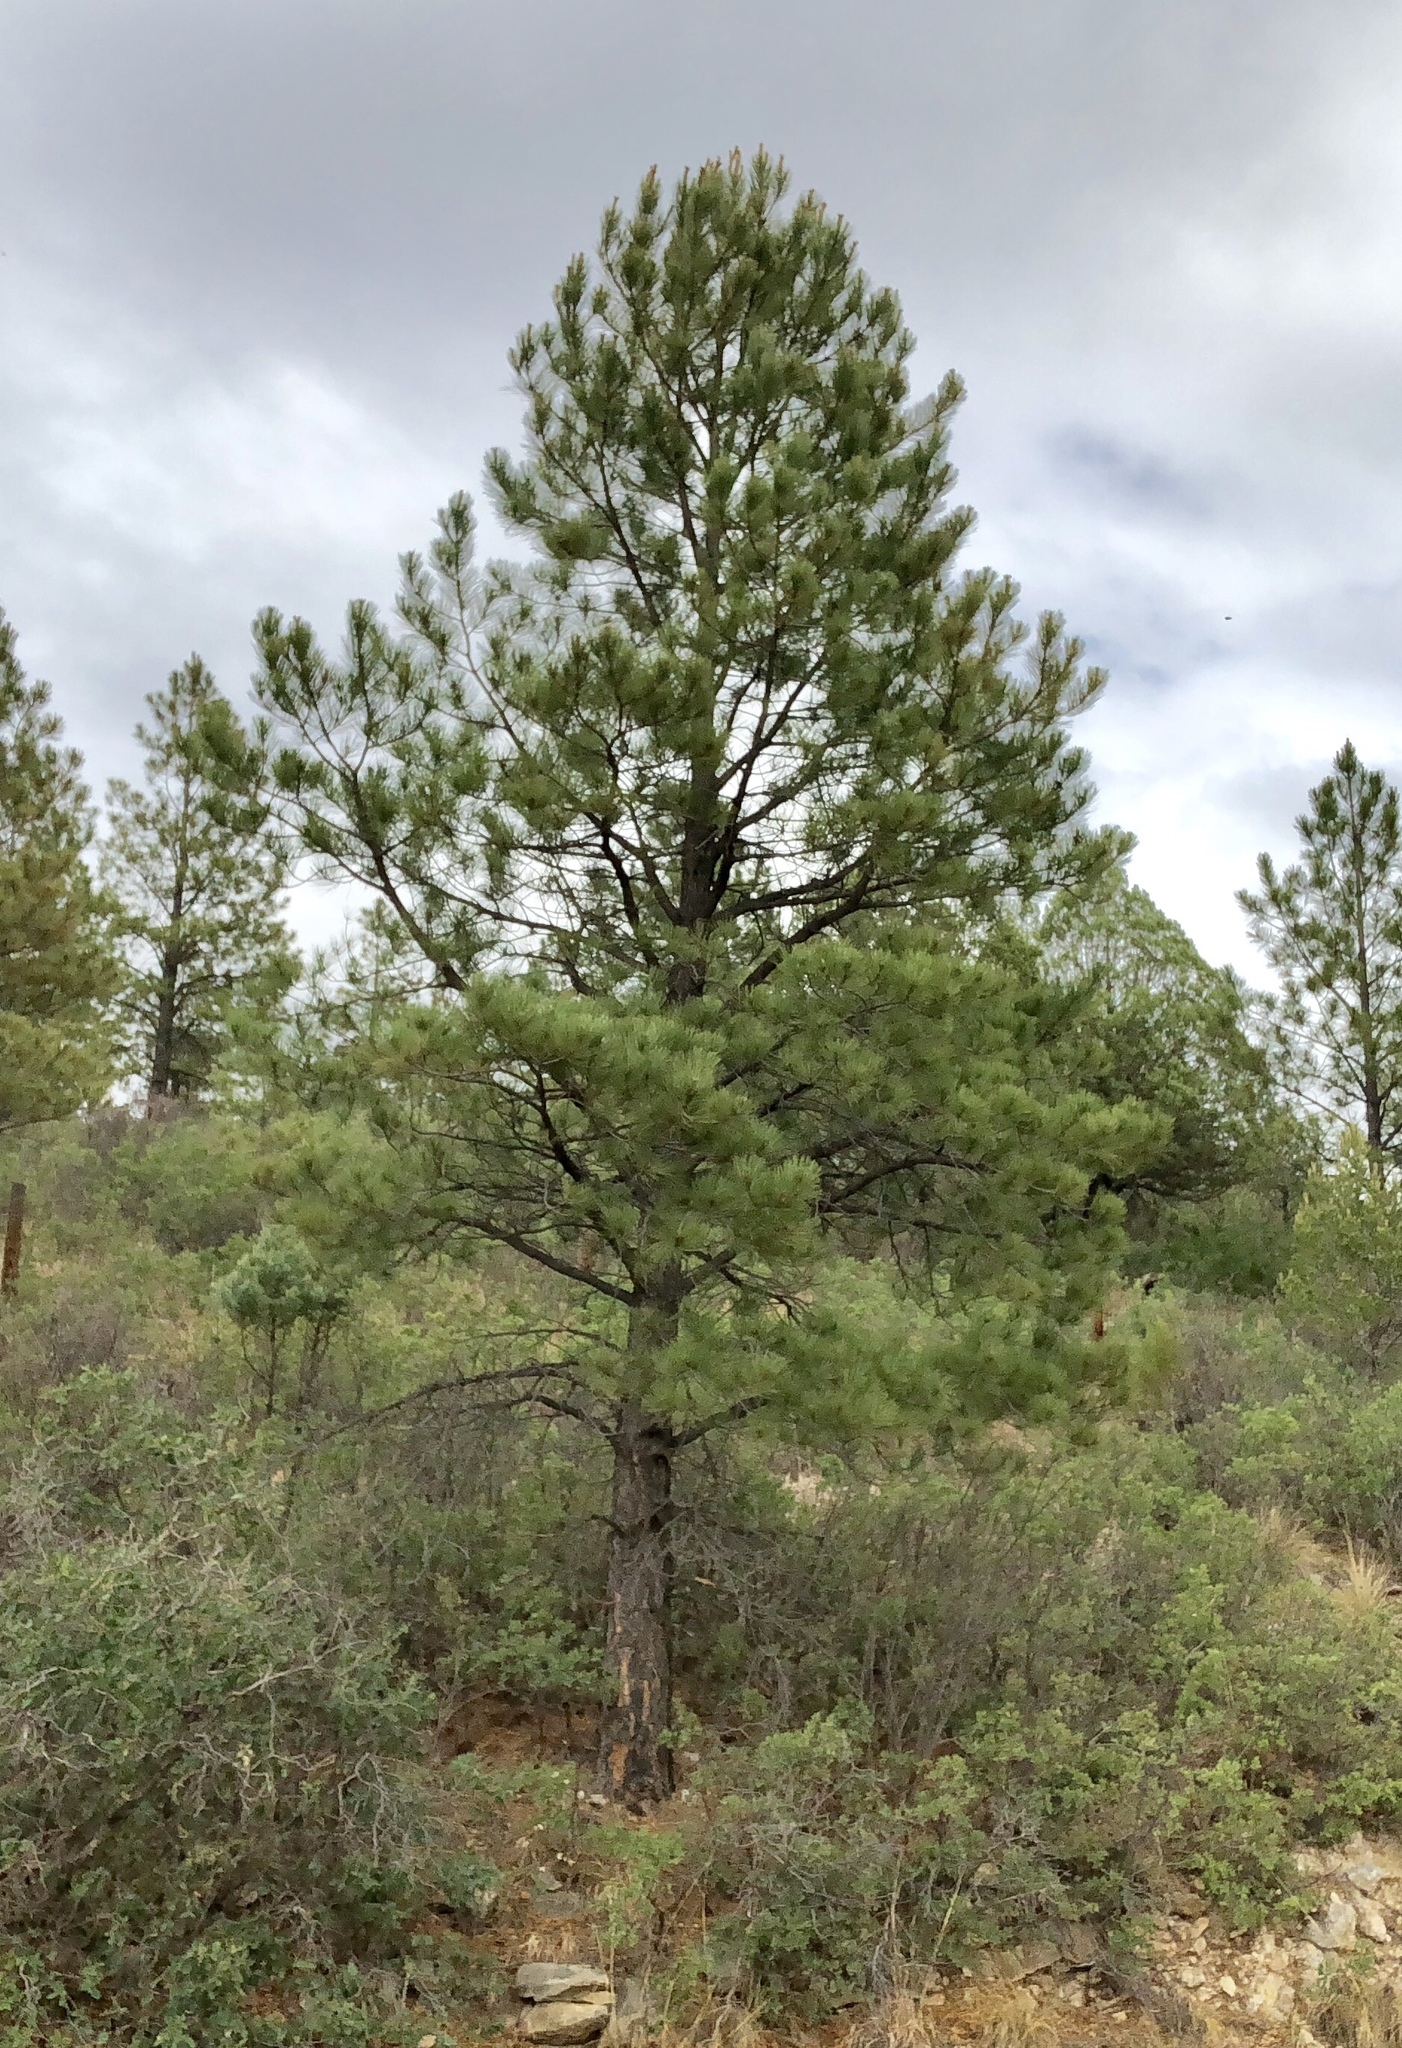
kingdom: Plantae
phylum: Tracheophyta
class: Pinopsida
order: Pinales
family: Pinaceae
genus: Pinus
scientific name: Pinus ponderosa
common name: Western yellow-pine
